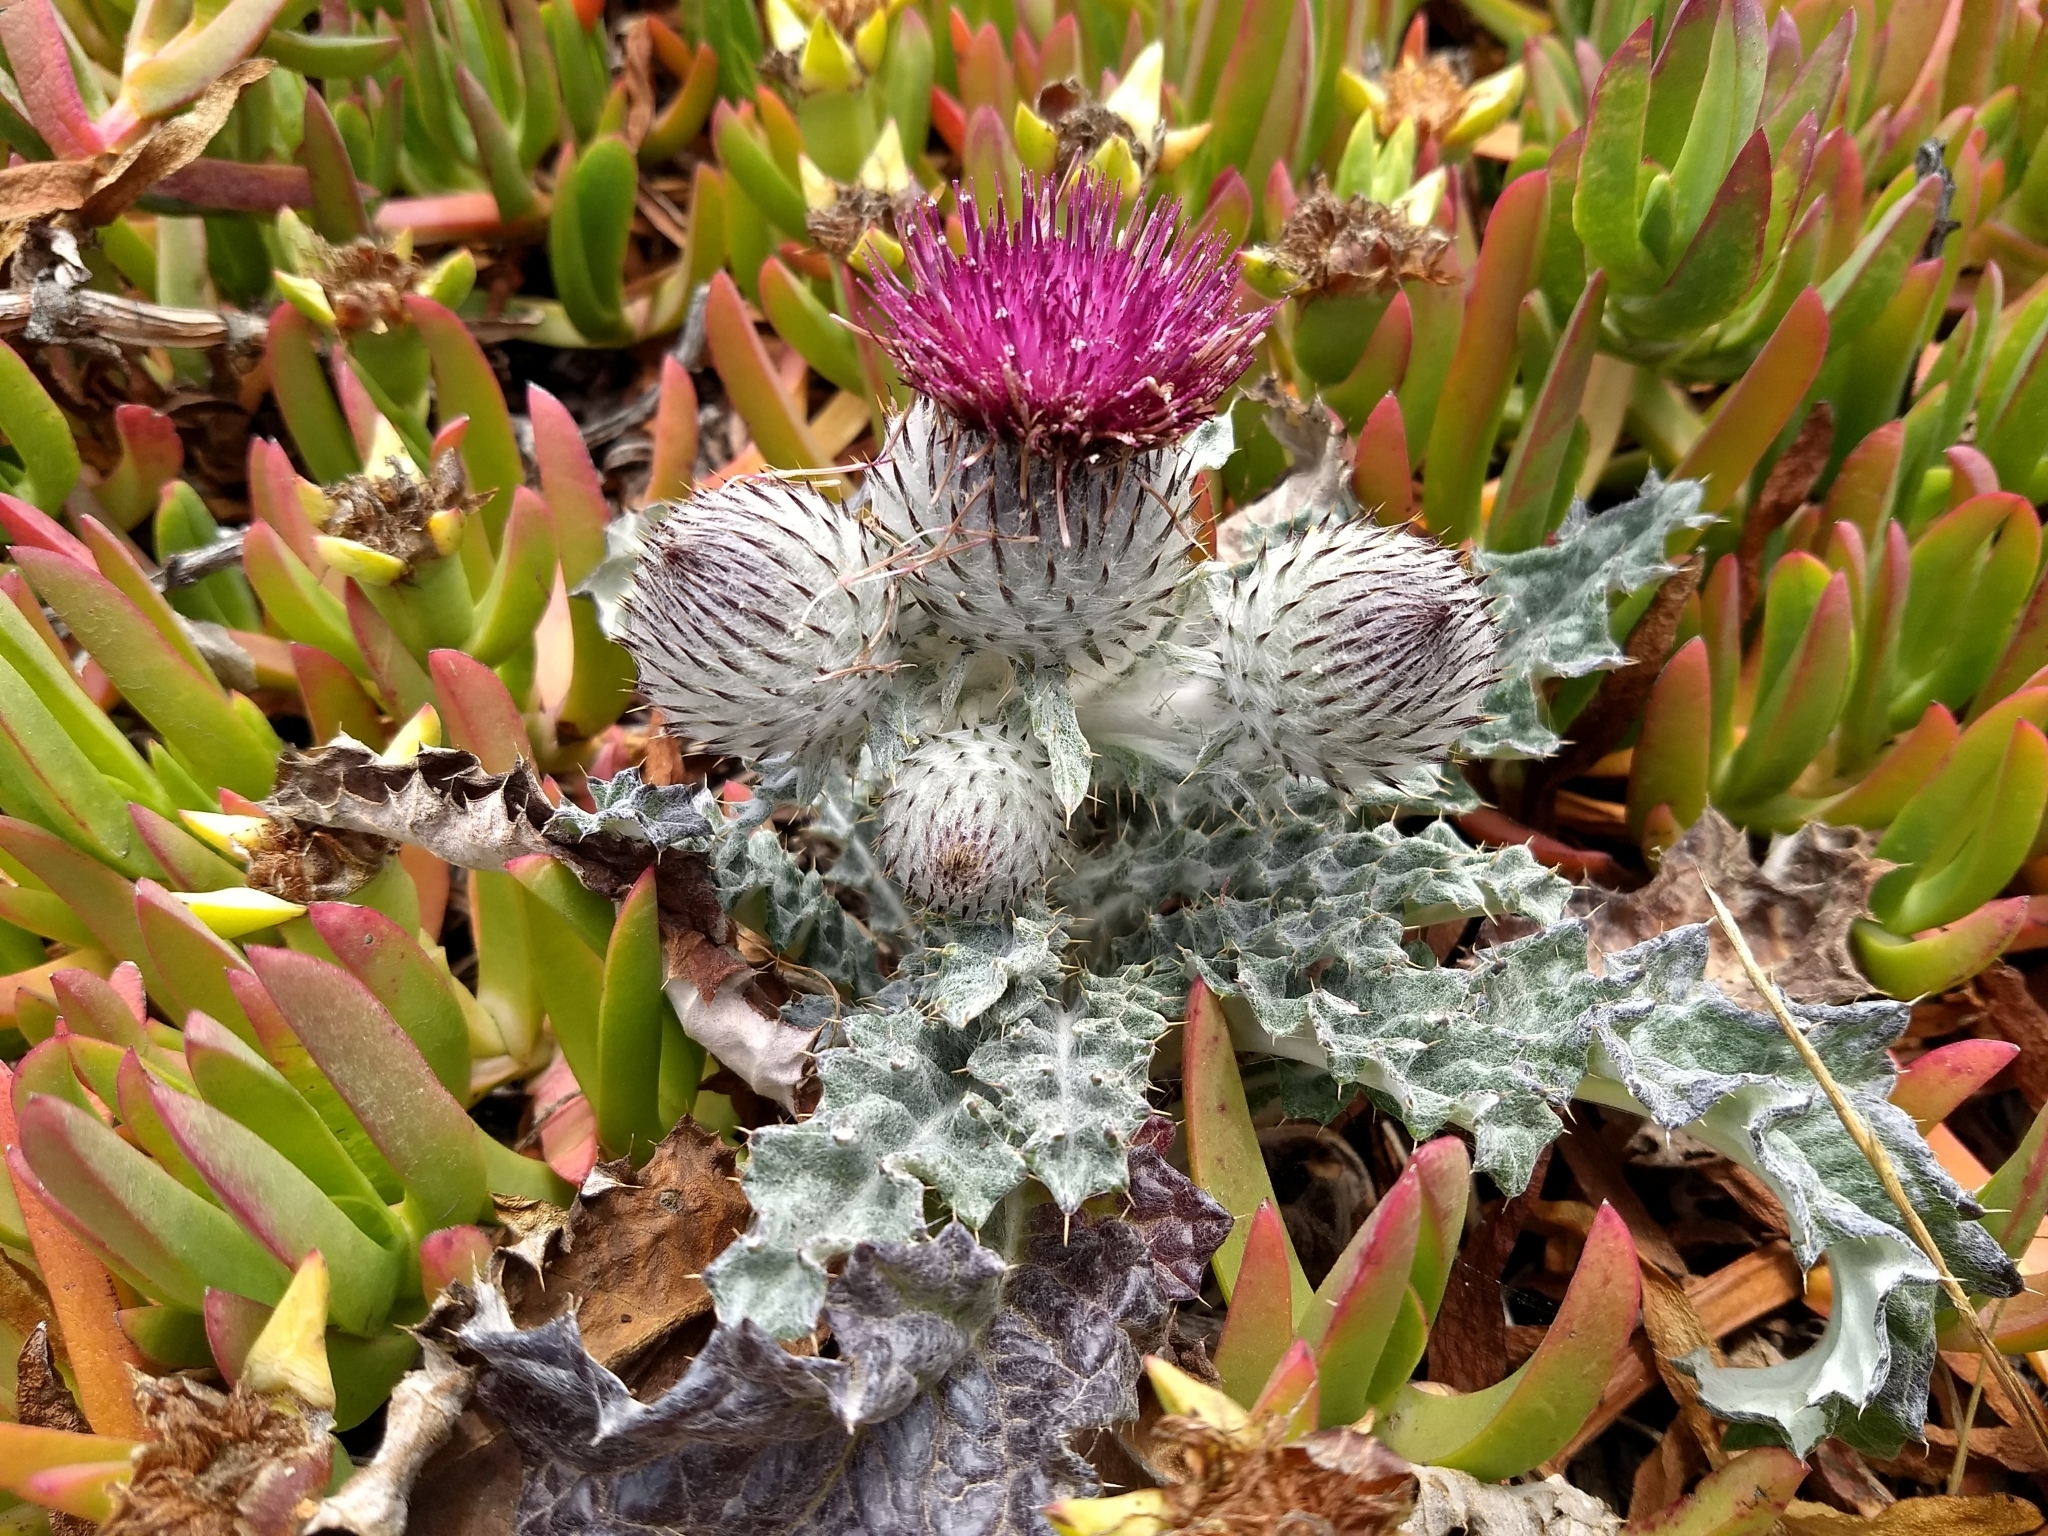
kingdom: Plantae
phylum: Tracheophyta
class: Magnoliopsida
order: Asterales
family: Asteraceae
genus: Cirsium
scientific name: Cirsium occidentale
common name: Western thistle
